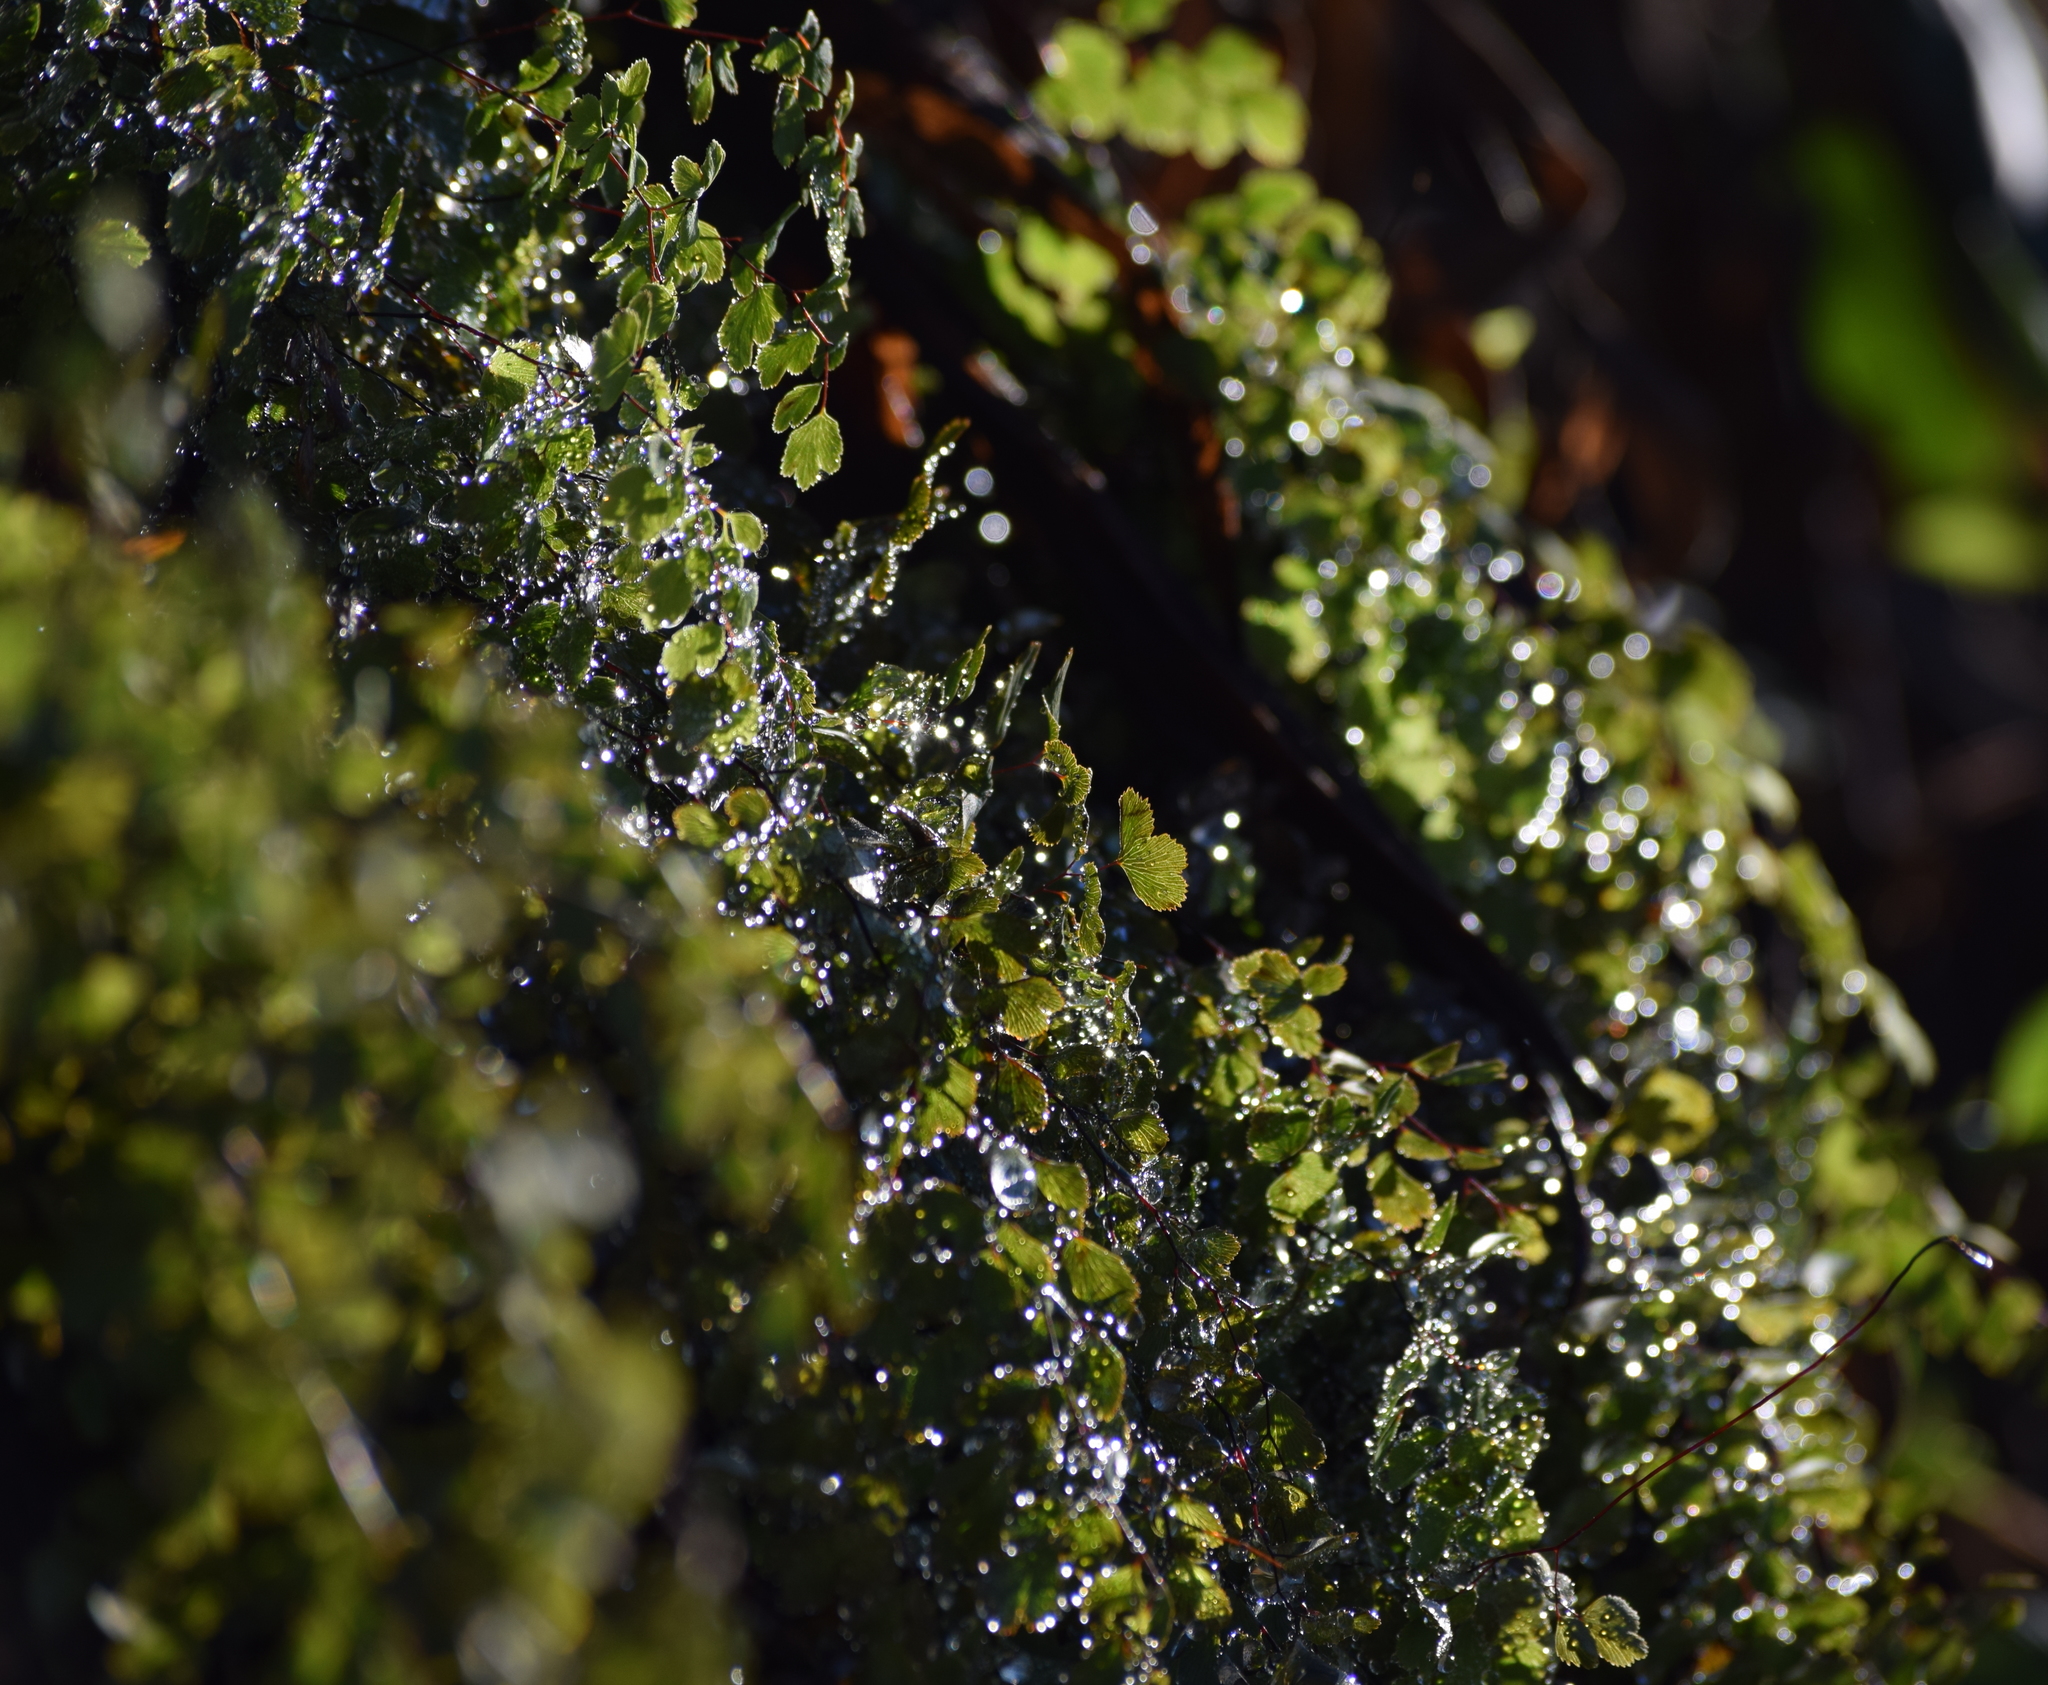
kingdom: Plantae
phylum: Tracheophyta
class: Polypodiopsida
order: Polypodiales
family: Pteridaceae
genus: Adiantum
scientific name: Adiantum capillus-veneris
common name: Maidenhair fern
